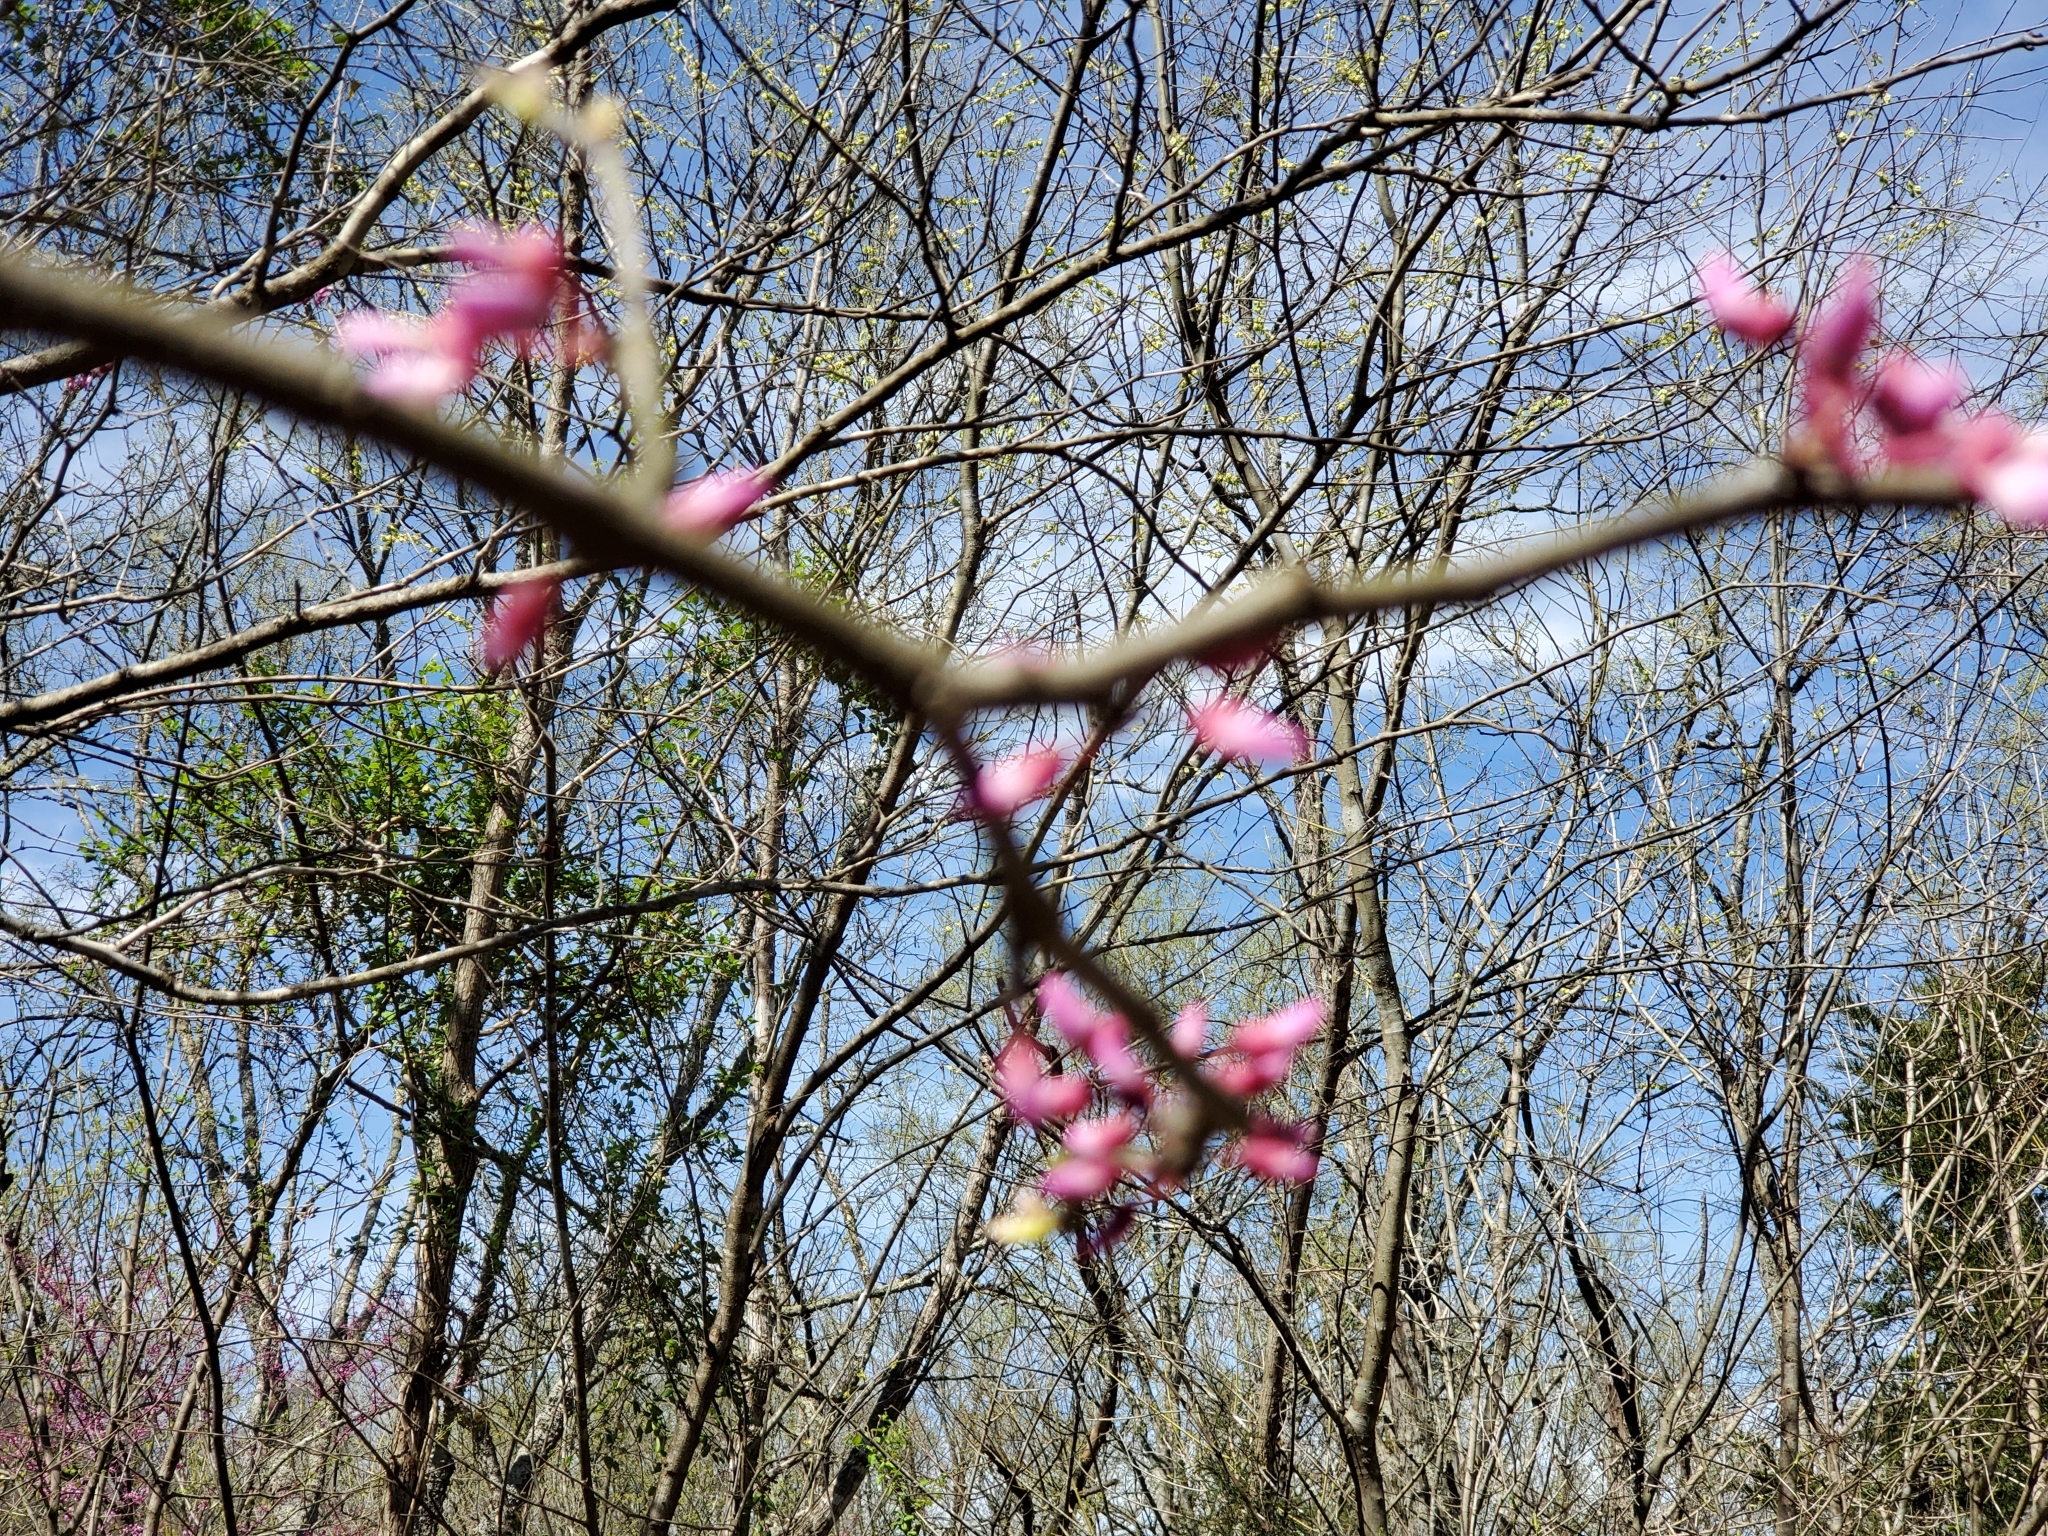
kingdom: Plantae
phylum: Tracheophyta
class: Magnoliopsida
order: Fabales
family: Fabaceae
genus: Cercis
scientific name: Cercis canadensis
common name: Eastern redbud
